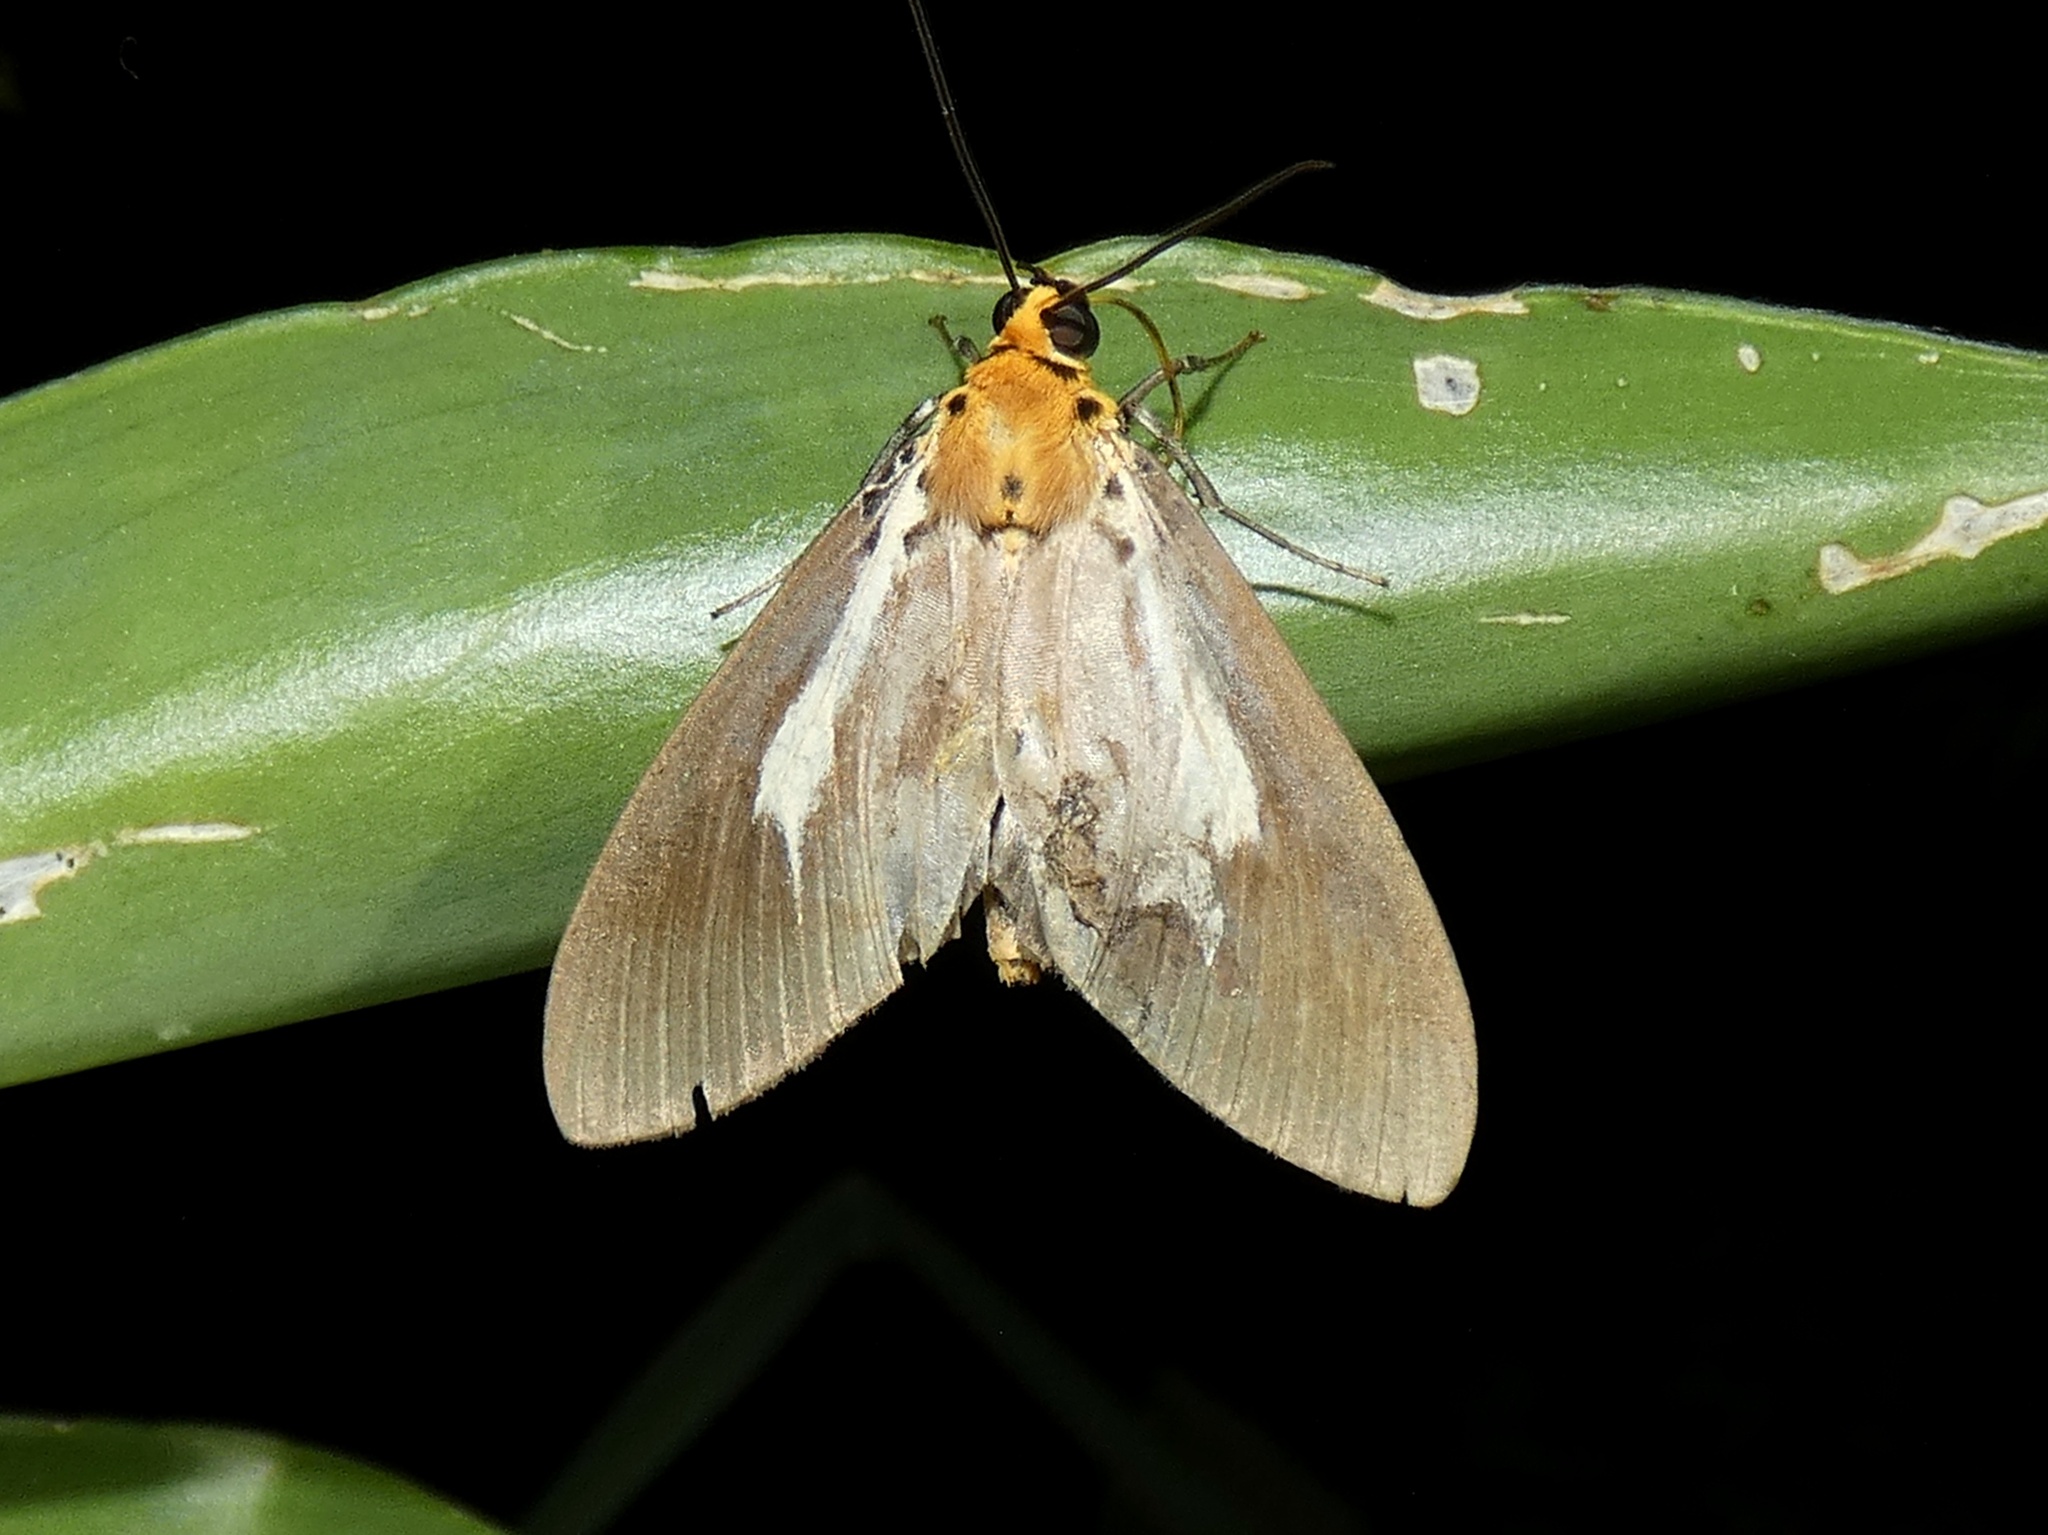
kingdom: Animalia
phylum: Arthropoda
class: Insecta
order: Lepidoptera
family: Erebidae
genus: Asota
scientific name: Asota heliconia
